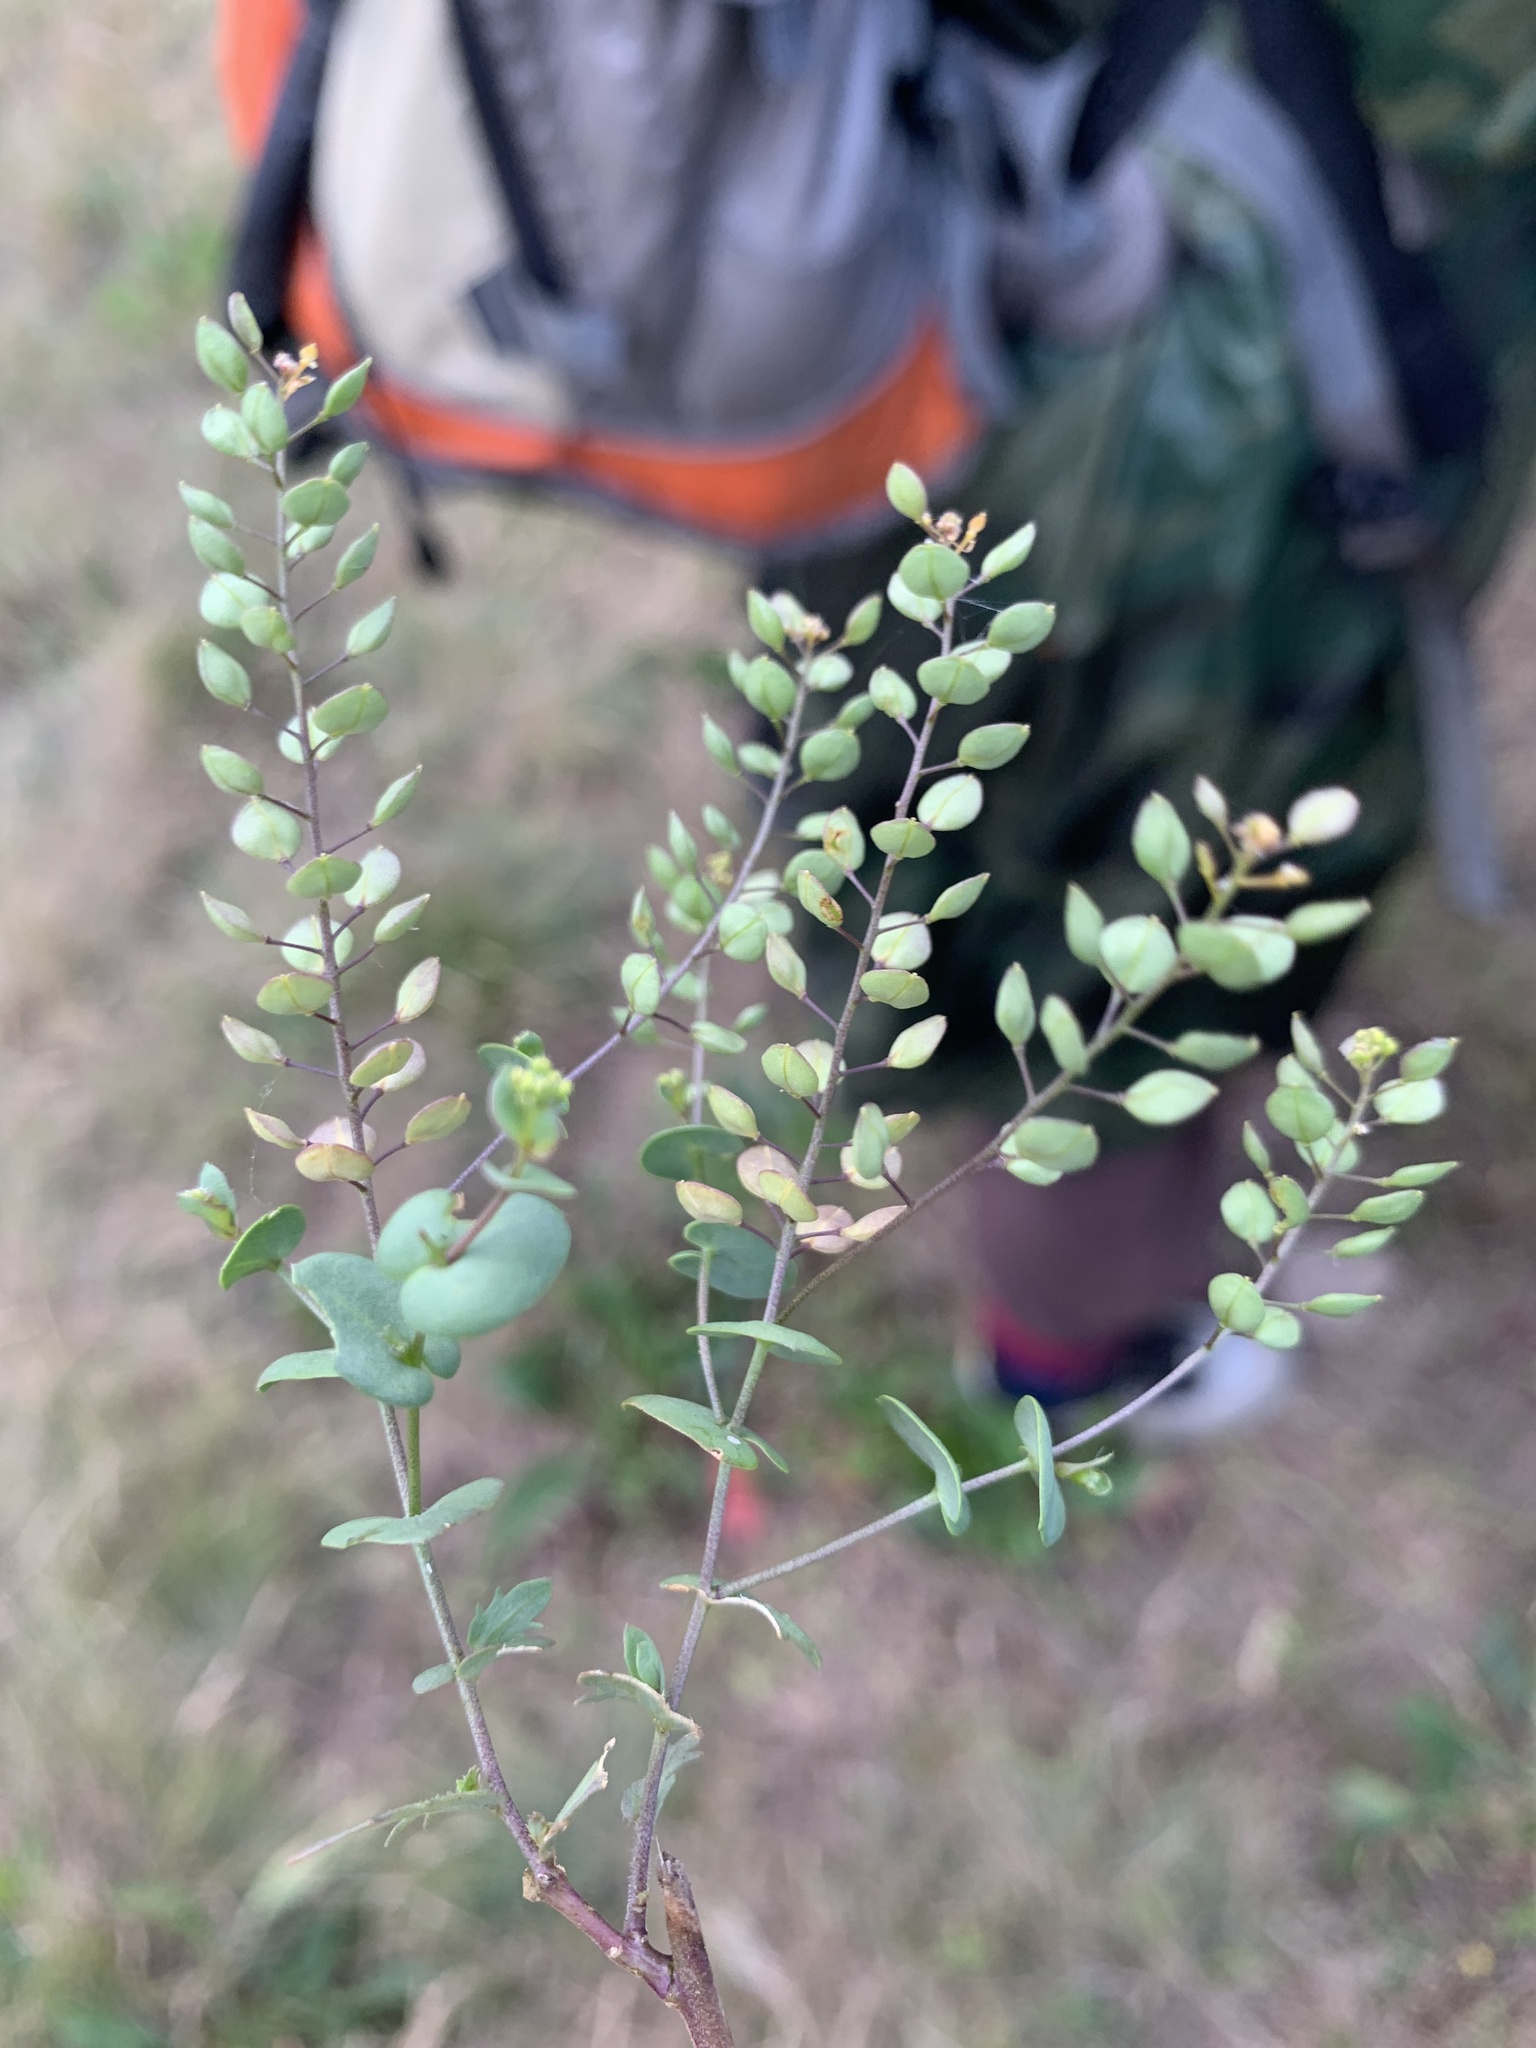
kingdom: Plantae
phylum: Tracheophyta
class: Magnoliopsida
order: Brassicales
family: Brassicaceae
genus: Lepidium
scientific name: Lepidium perfoliatum
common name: Perfoliate pepperwort
